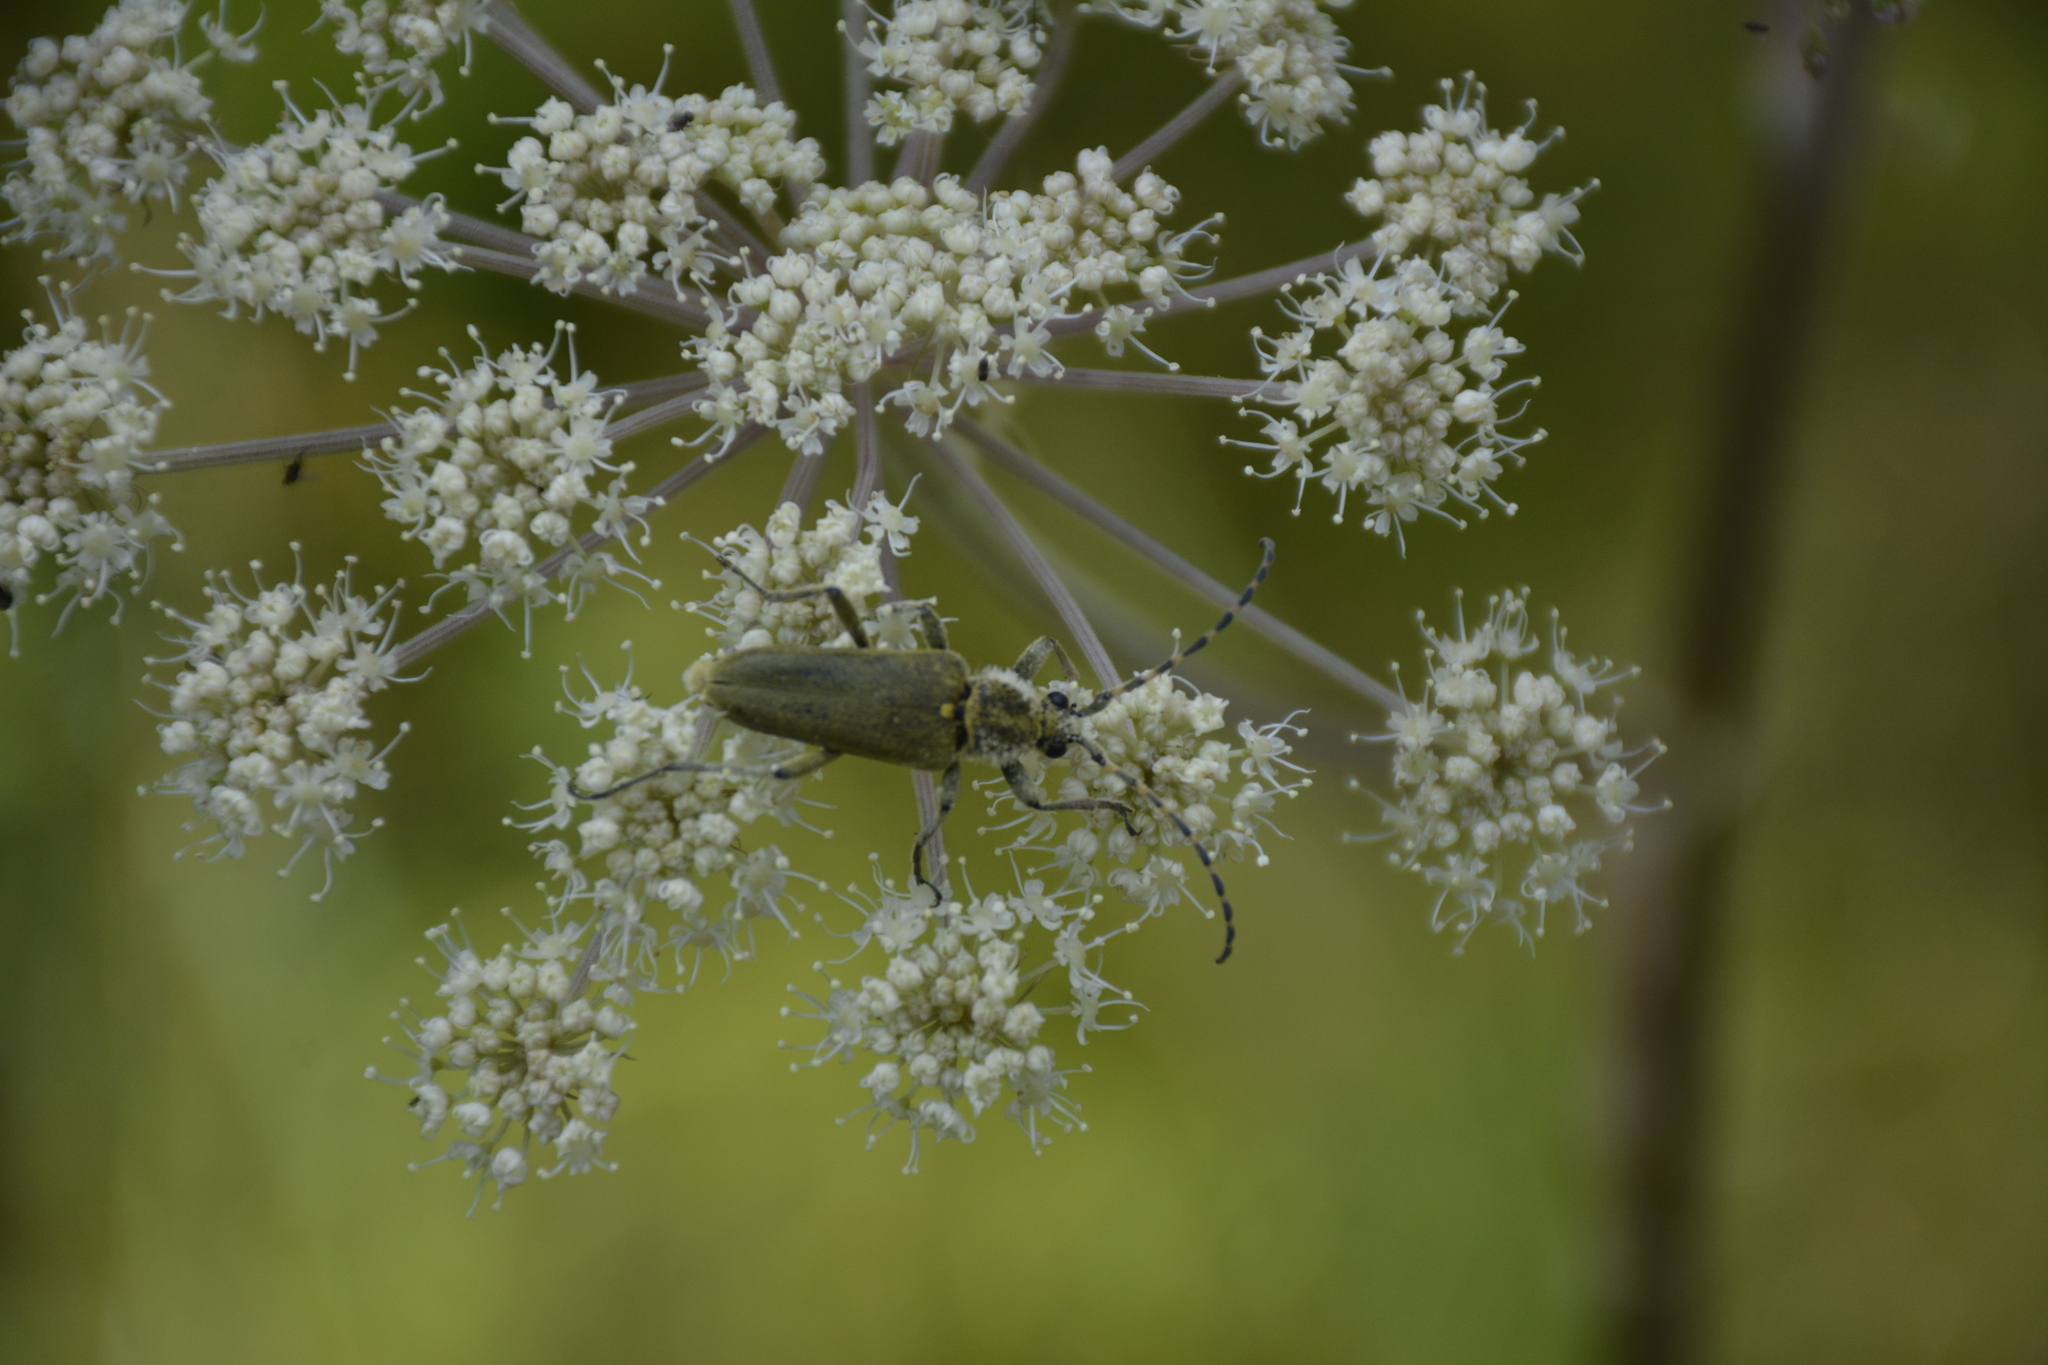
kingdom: Animalia
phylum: Arthropoda
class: Insecta
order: Coleoptera
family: Cerambycidae
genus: Lepturobosca
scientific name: Lepturobosca virens
